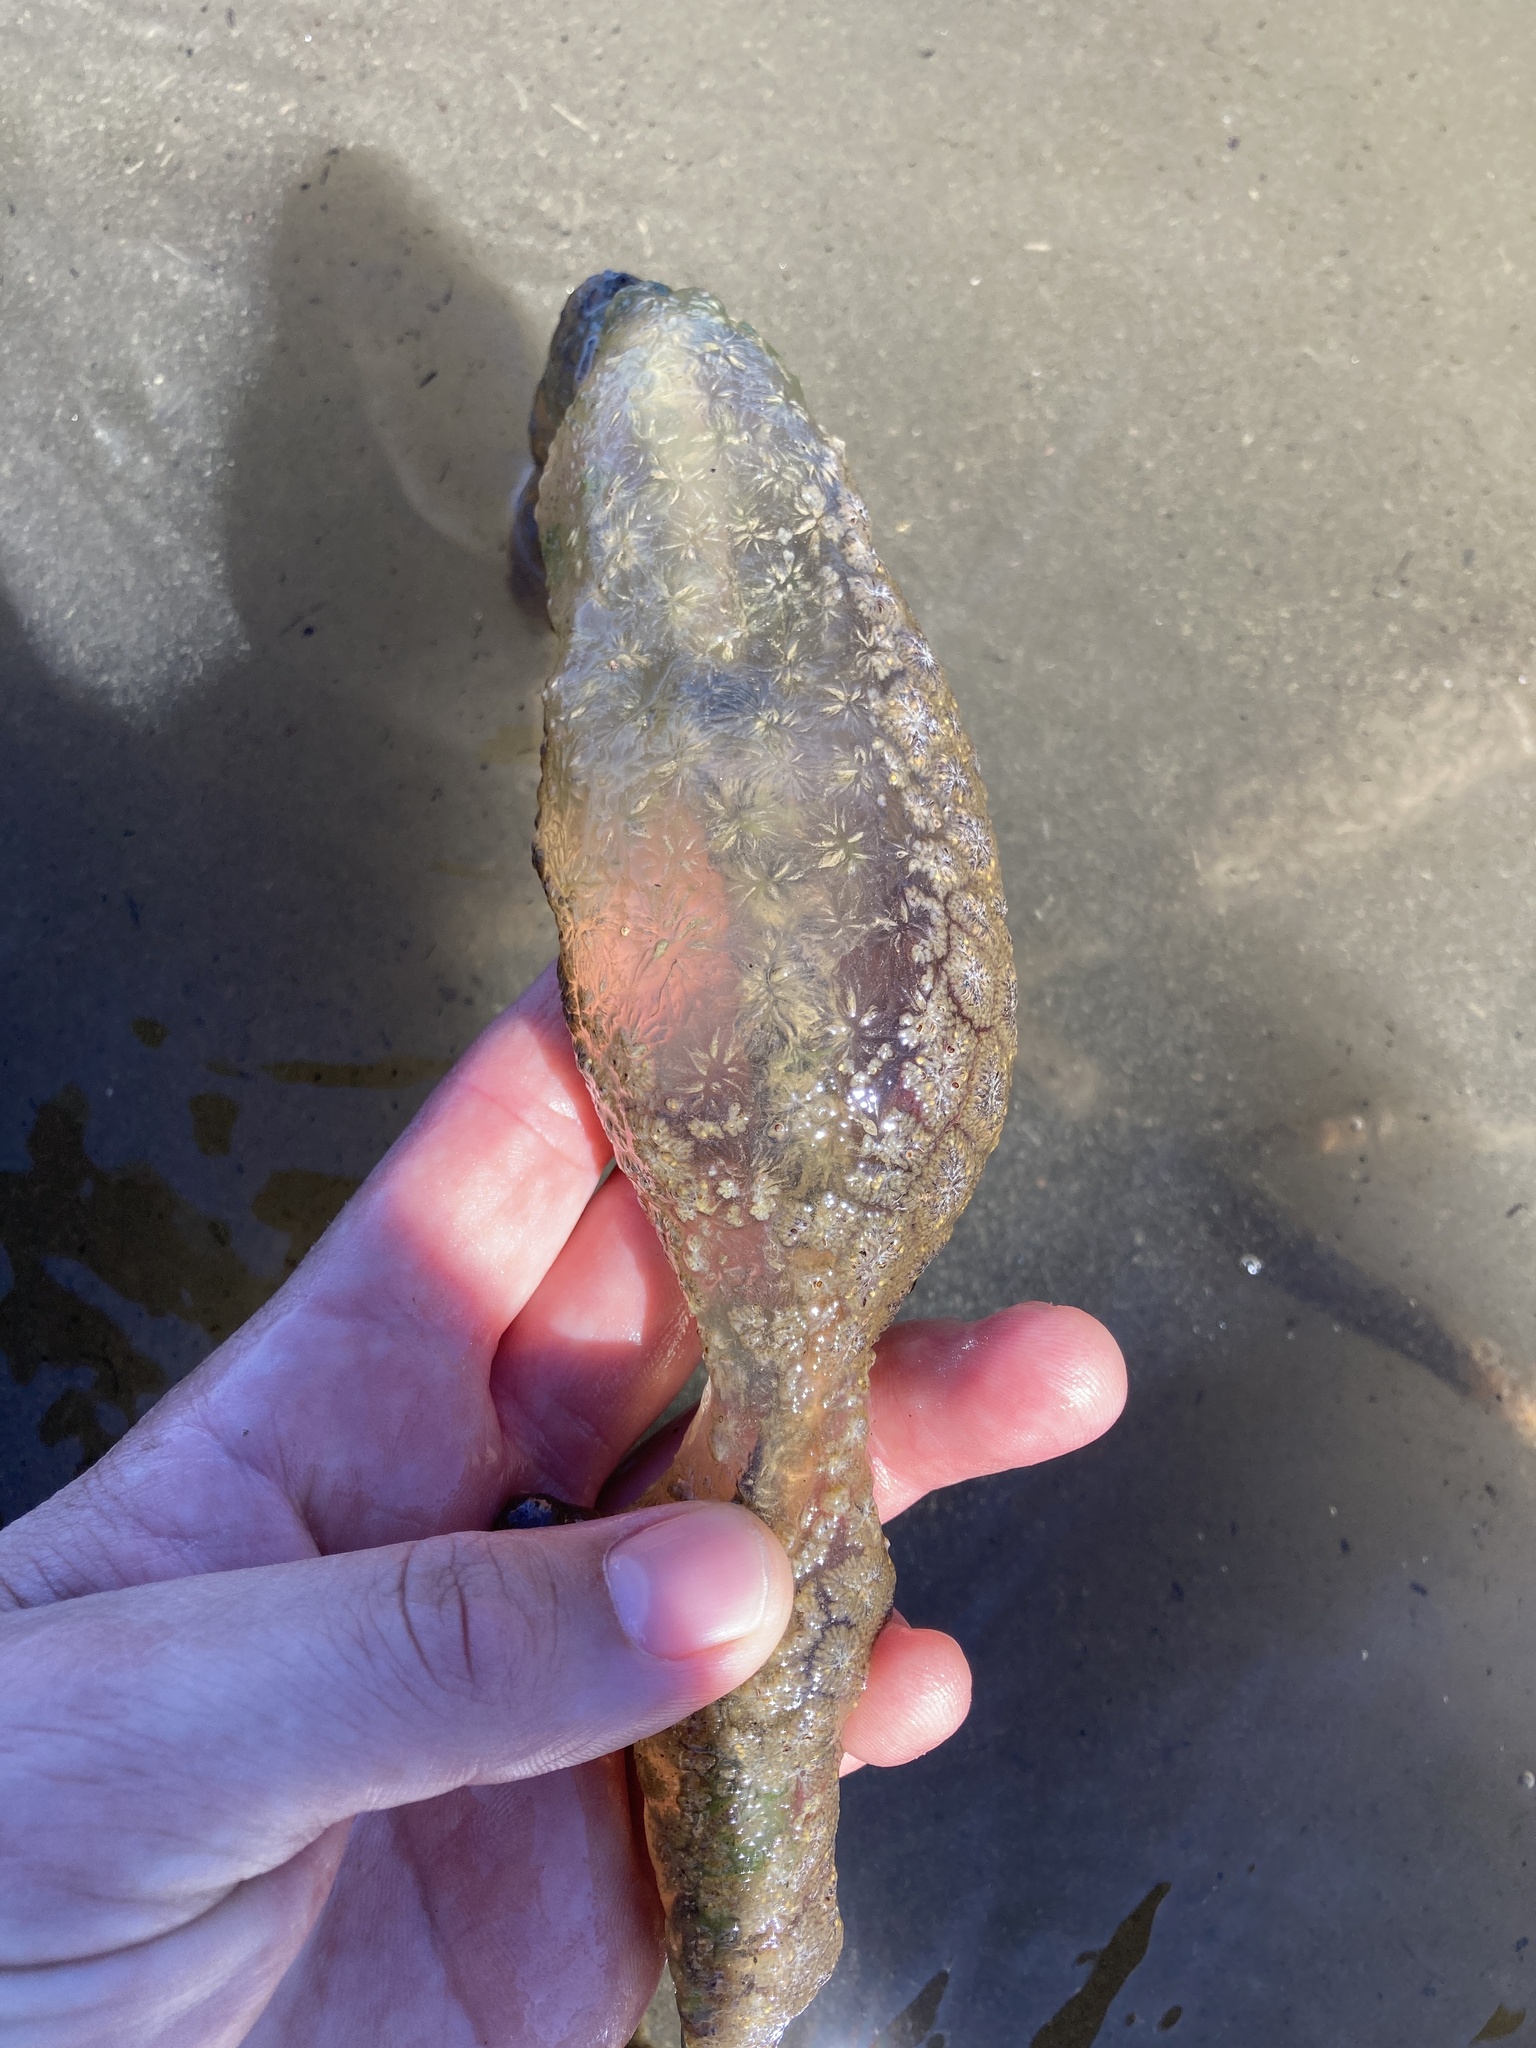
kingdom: Animalia
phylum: Bryozoa
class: Phylactolaemata
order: Plumatellida
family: Pectinatellidae
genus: Pectinatella
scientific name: Pectinatella magnifica
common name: Magnificent bryozoan
